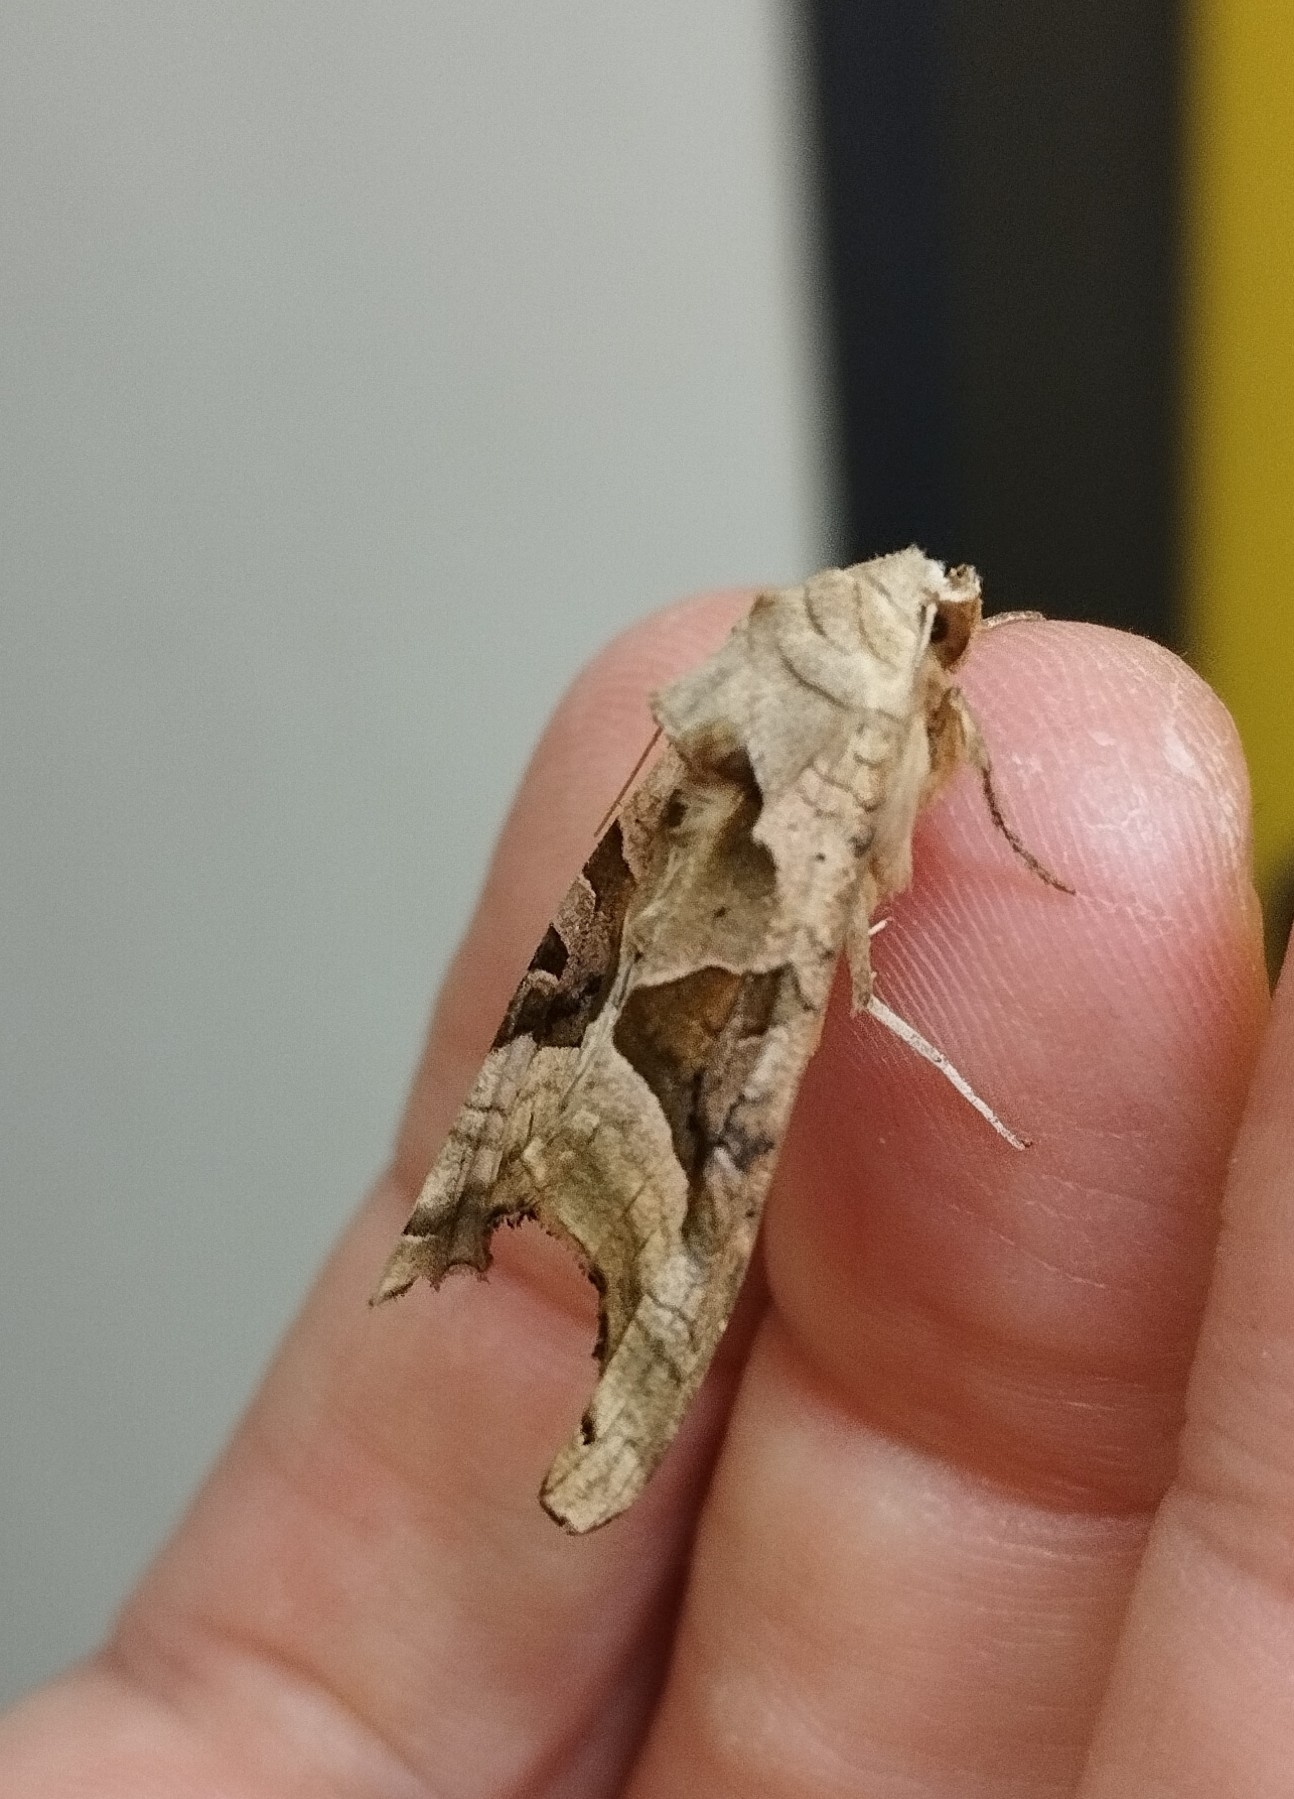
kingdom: Animalia
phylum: Arthropoda
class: Insecta
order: Lepidoptera
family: Noctuidae
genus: Phlogophora
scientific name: Phlogophora meticulosa
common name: Angle shades
